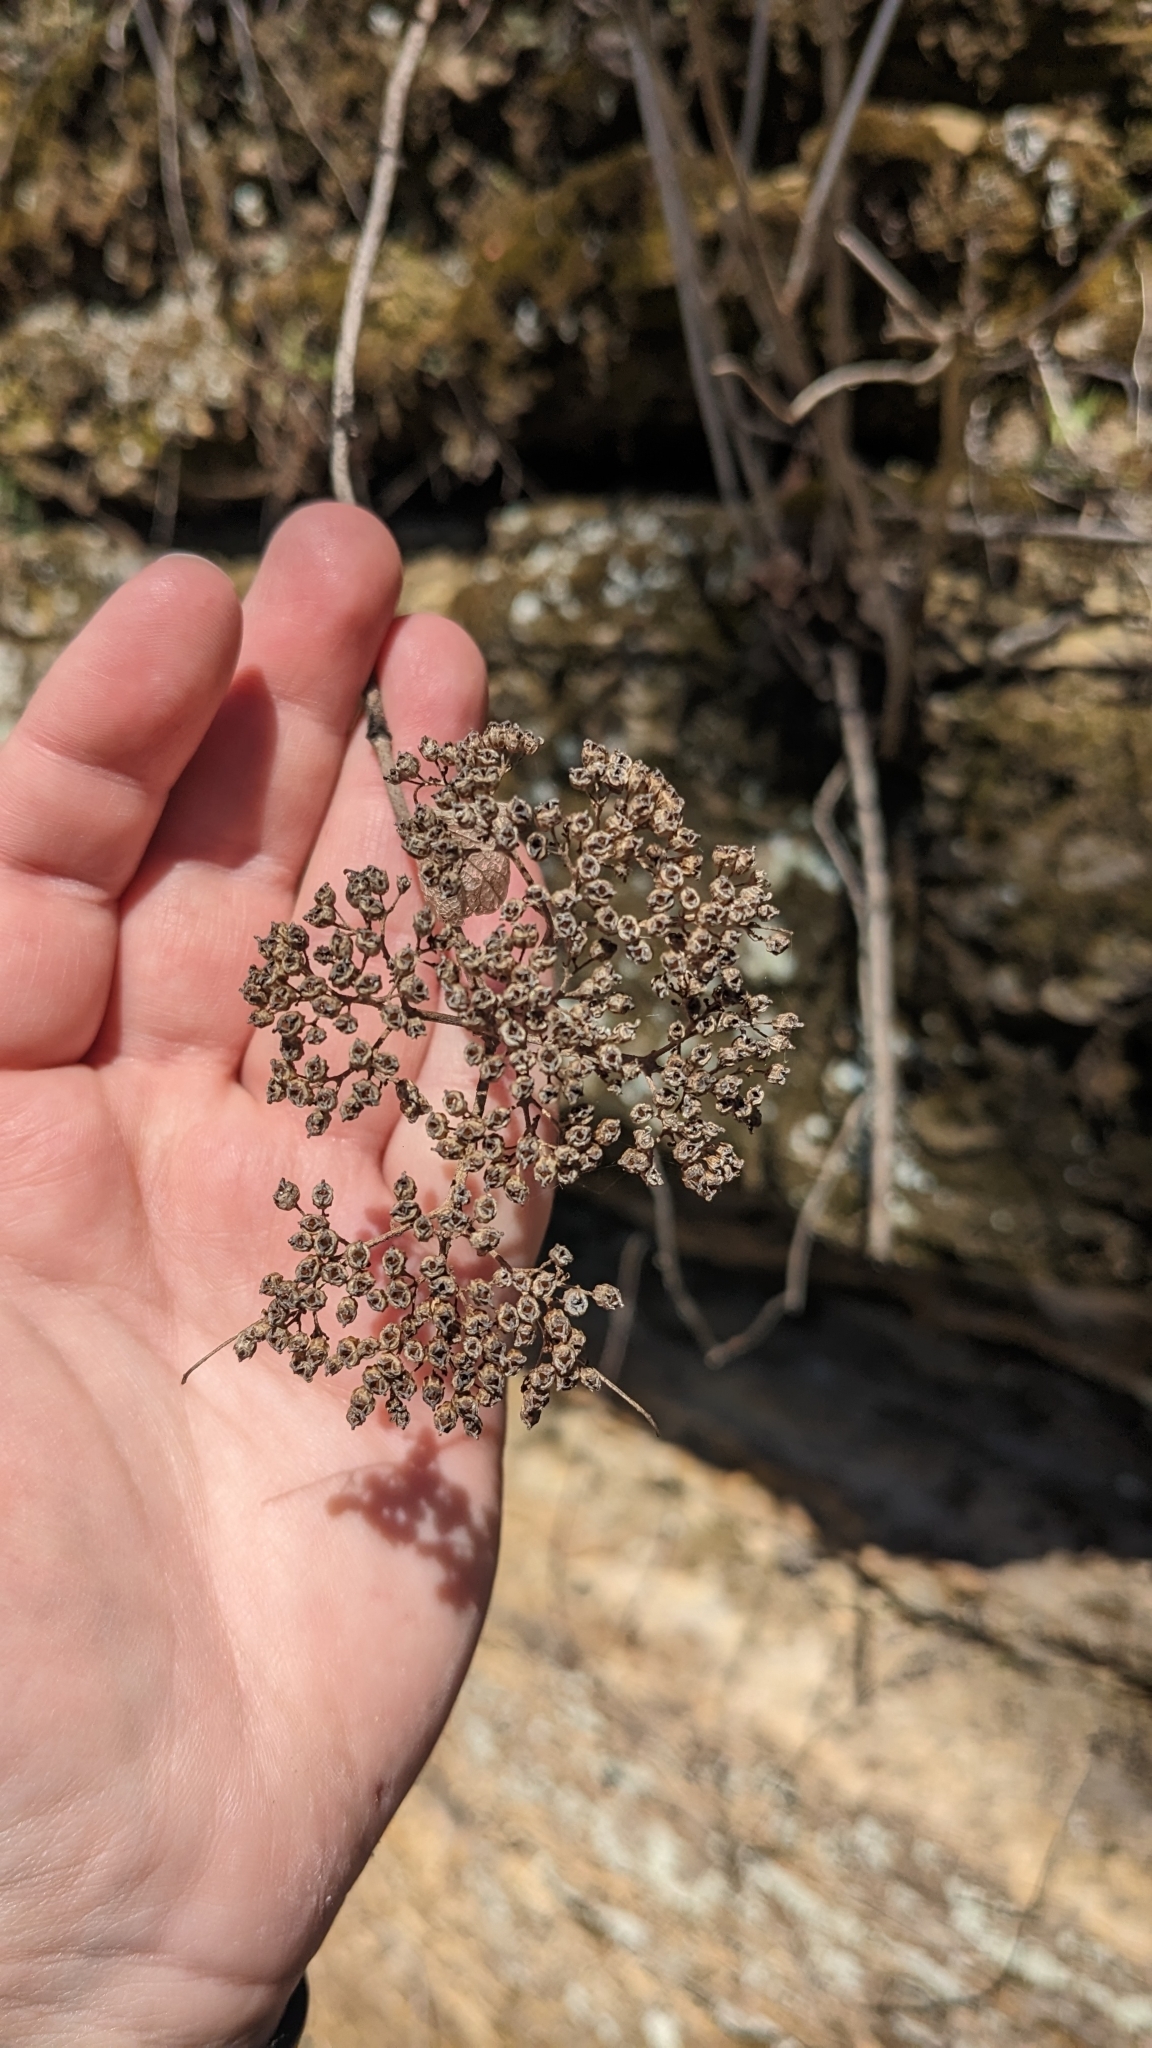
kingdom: Plantae
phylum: Tracheophyta
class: Magnoliopsida
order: Cornales
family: Hydrangeaceae
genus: Hydrangea
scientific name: Hydrangea arborescens
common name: Sevenbark
